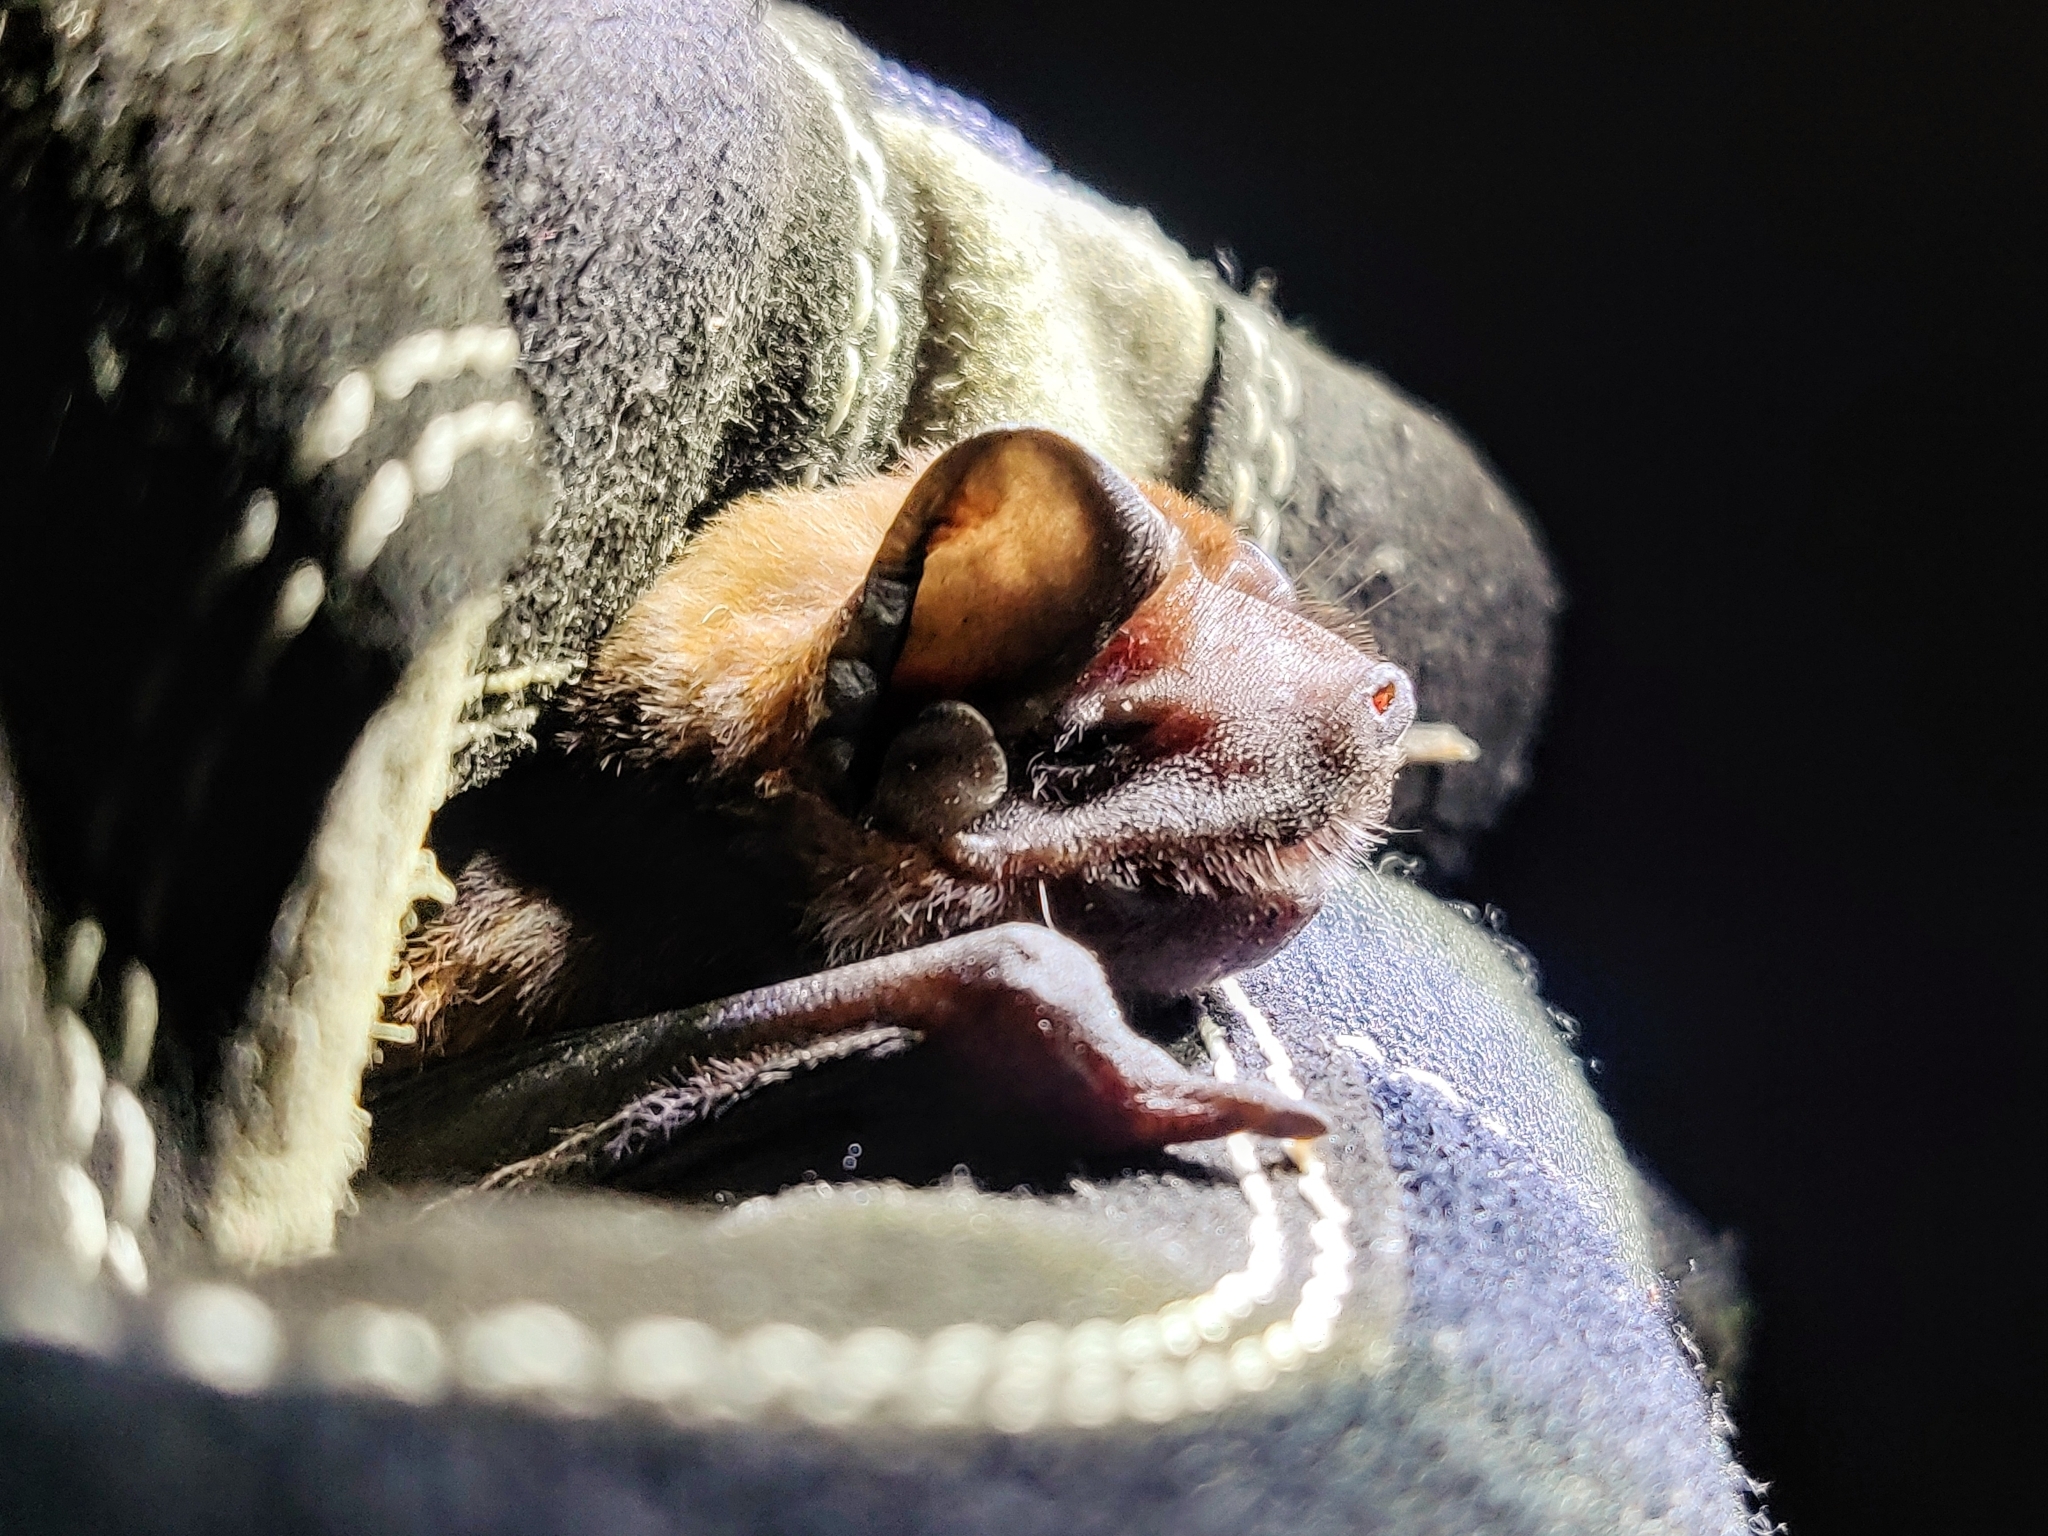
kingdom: Animalia
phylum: Chordata
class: Mammalia
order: Chiroptera
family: Molossidae
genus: Molossus
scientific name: Molossus molossus
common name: Pallas's mastiff bat
